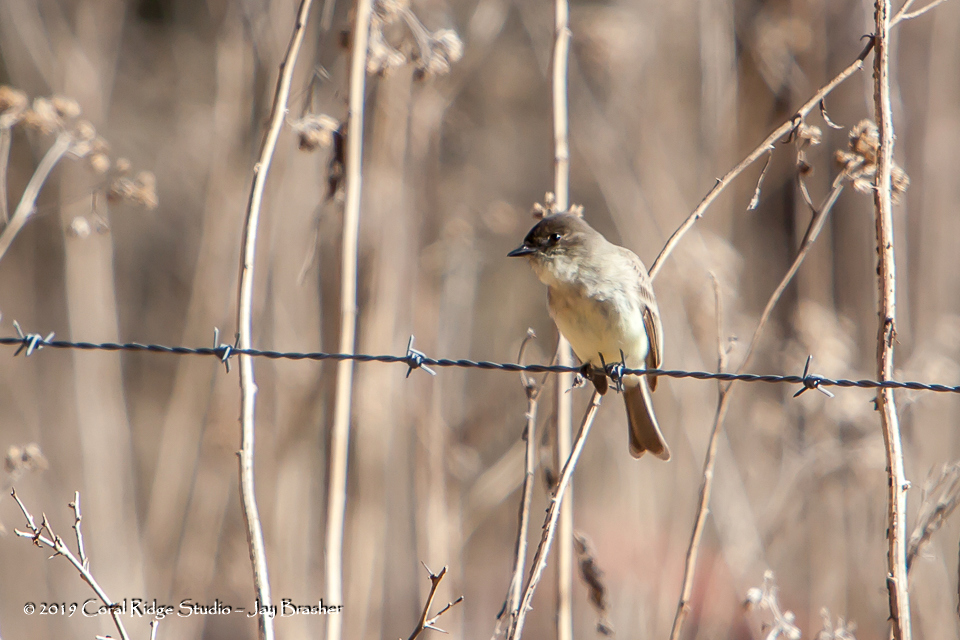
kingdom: Animalia
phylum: Chordata
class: Aves
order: Passeriformes
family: Tyrannidae
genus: Sayornis
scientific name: Sayornis phoebe
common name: Eastern phoebe
